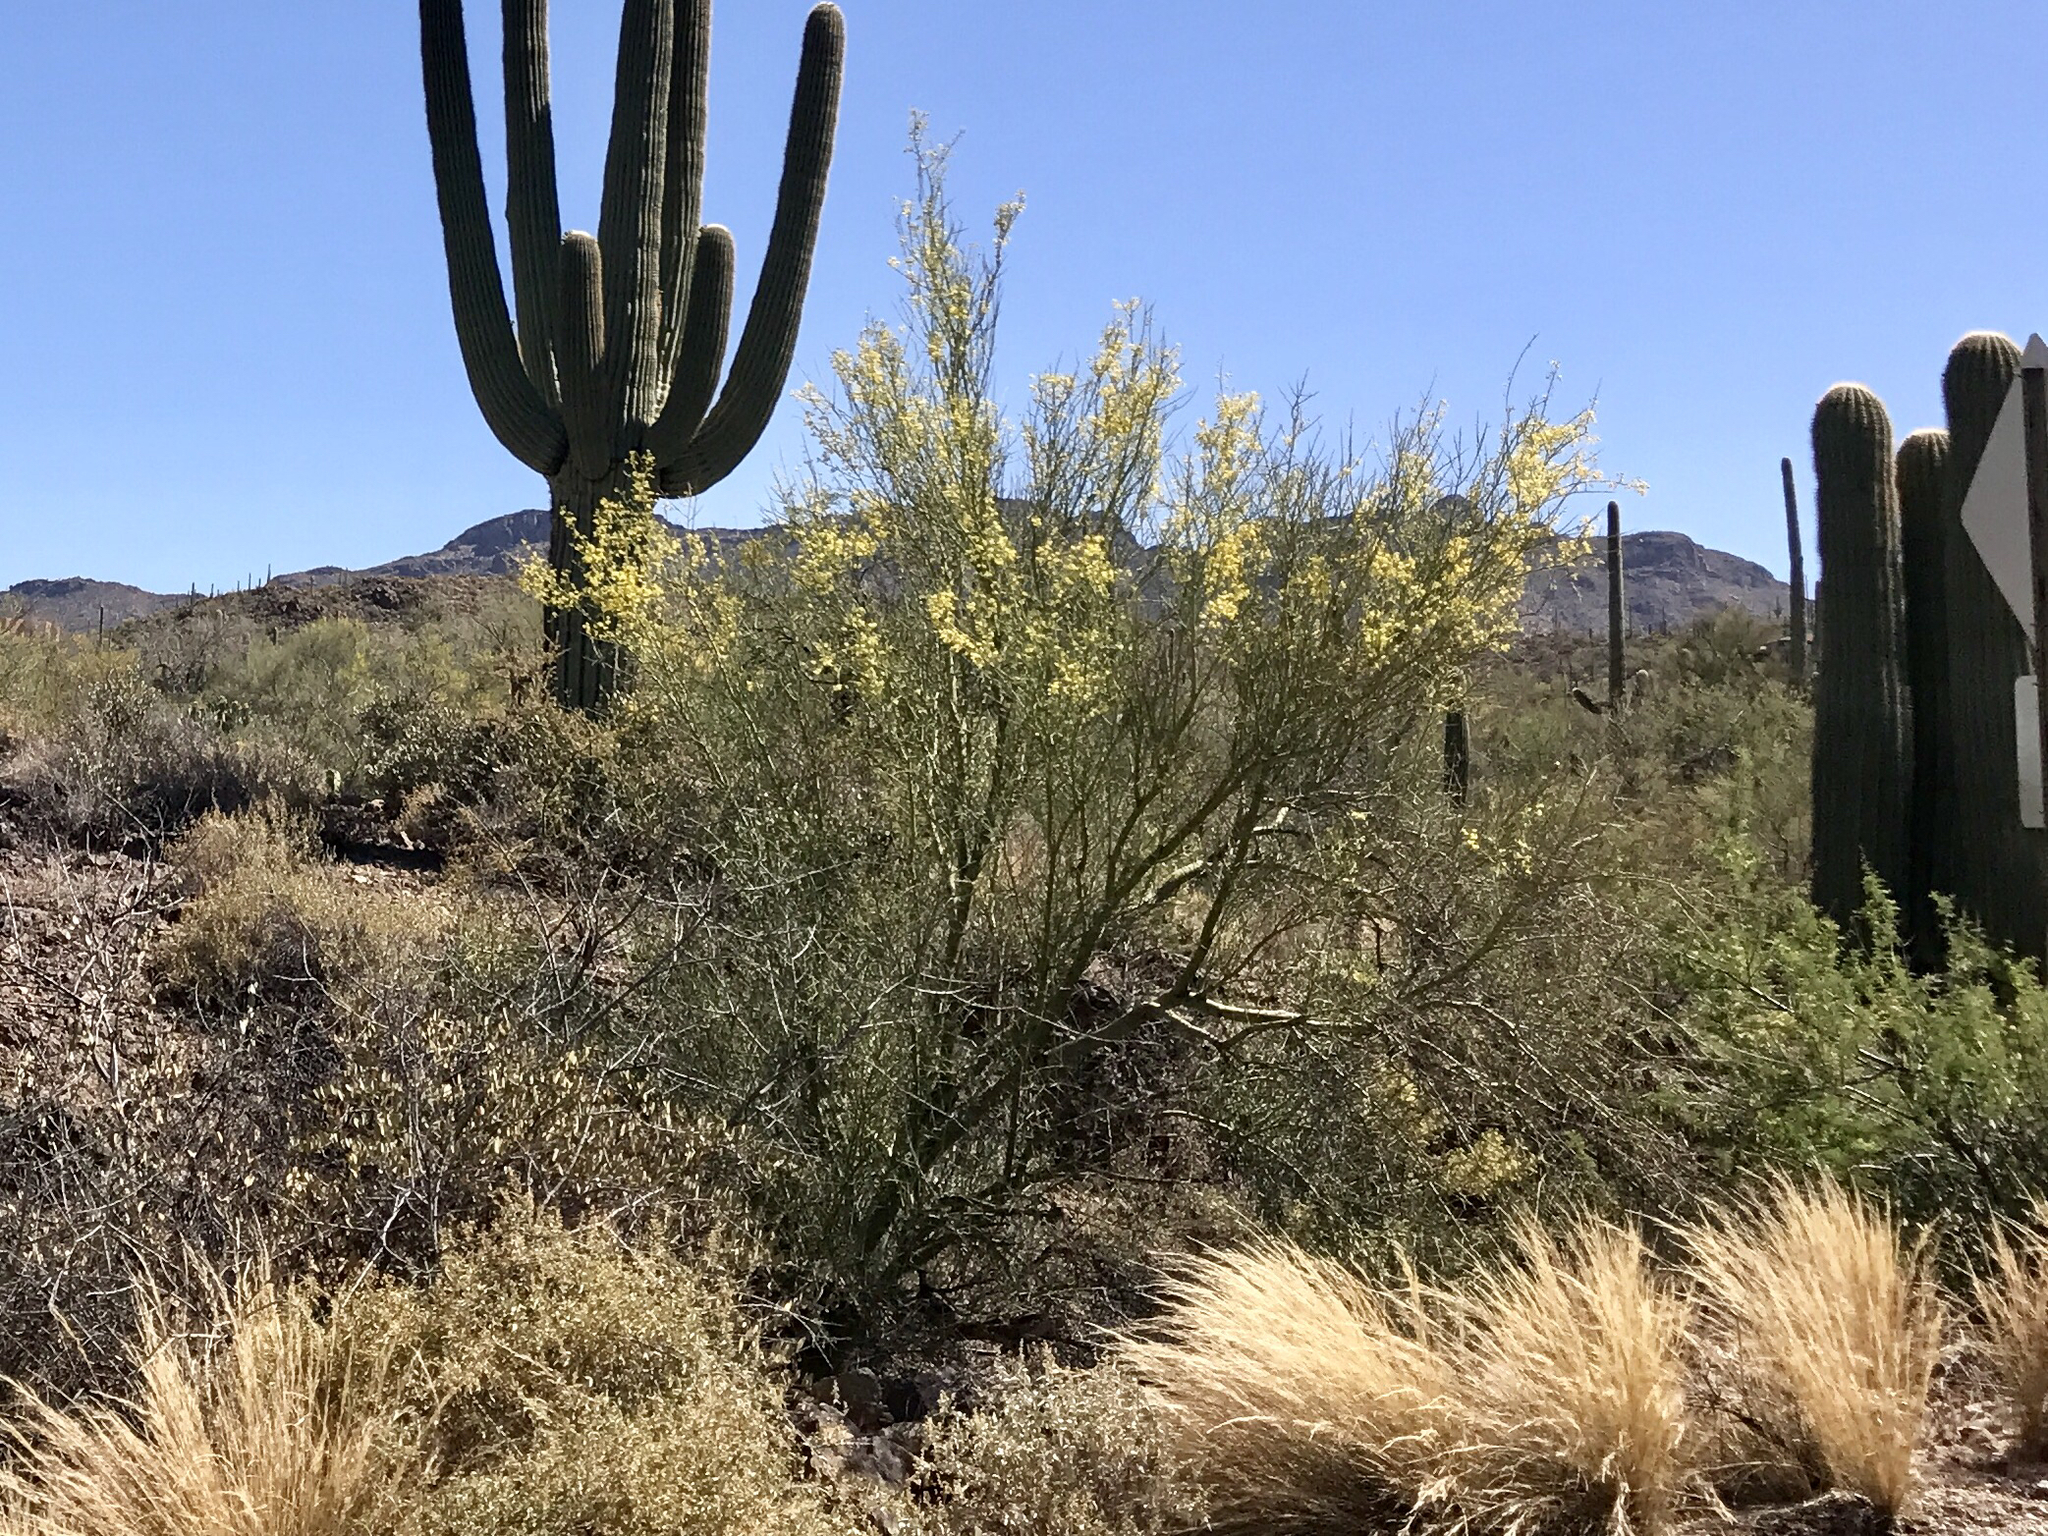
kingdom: Plantae
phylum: Tracheophyta
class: Magnoliopsida
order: Fabales
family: Fabaceae
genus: Parkinsonia
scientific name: Parkinsonia microphylla
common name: Yellow paloverde
